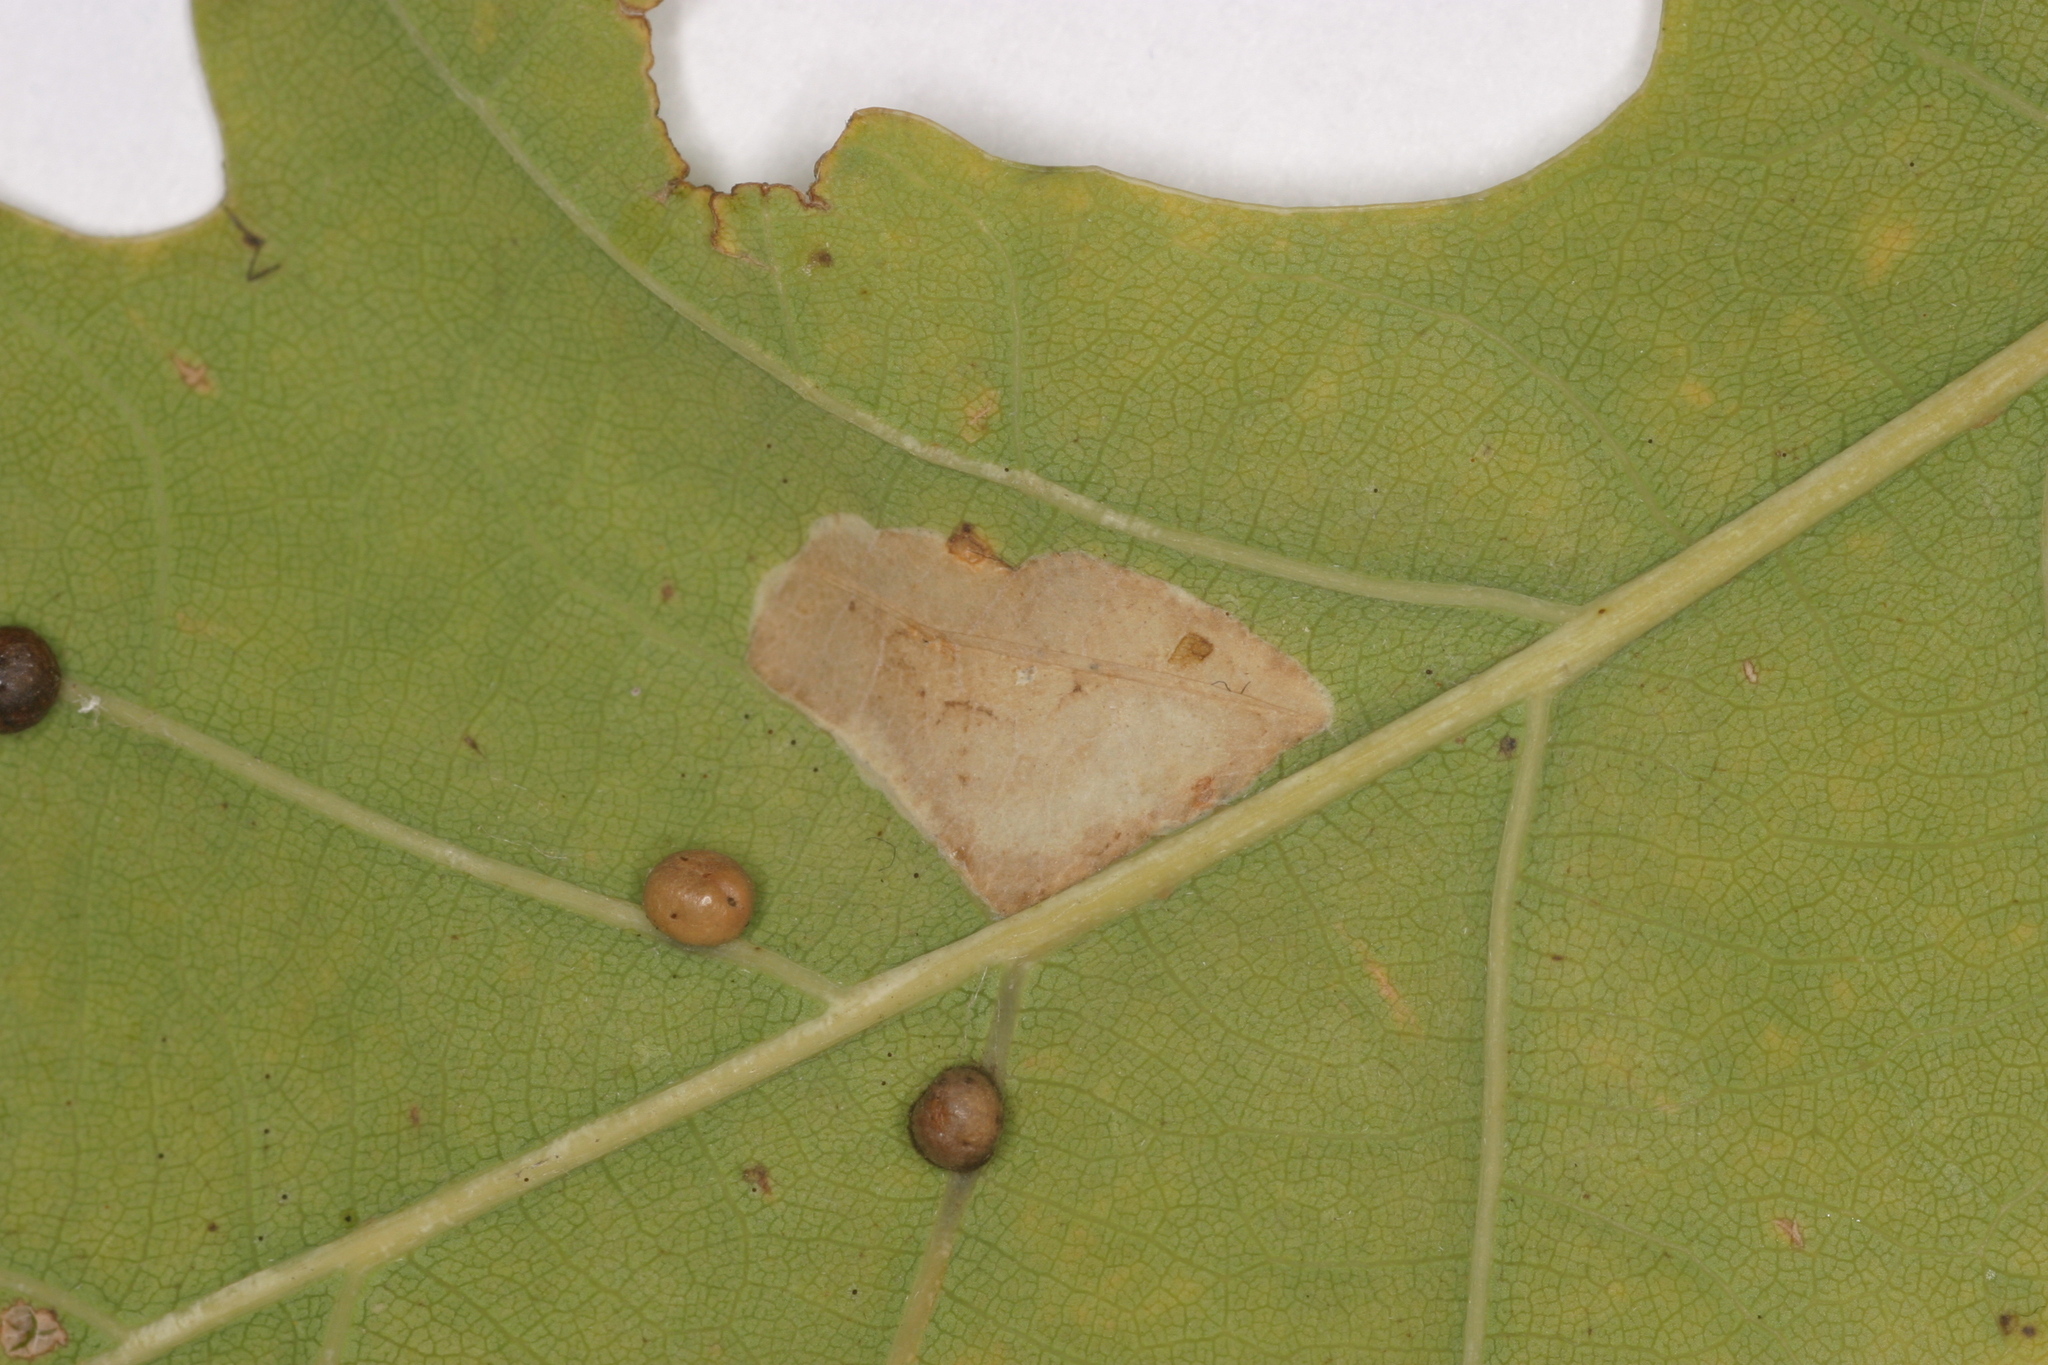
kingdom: Animalia
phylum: Arthropoda
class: Insecta
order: Lepidoptera
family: Gracillariidae
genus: Phyllonorycter
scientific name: Phyllonorycter quercifoliella
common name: Common oak midget
